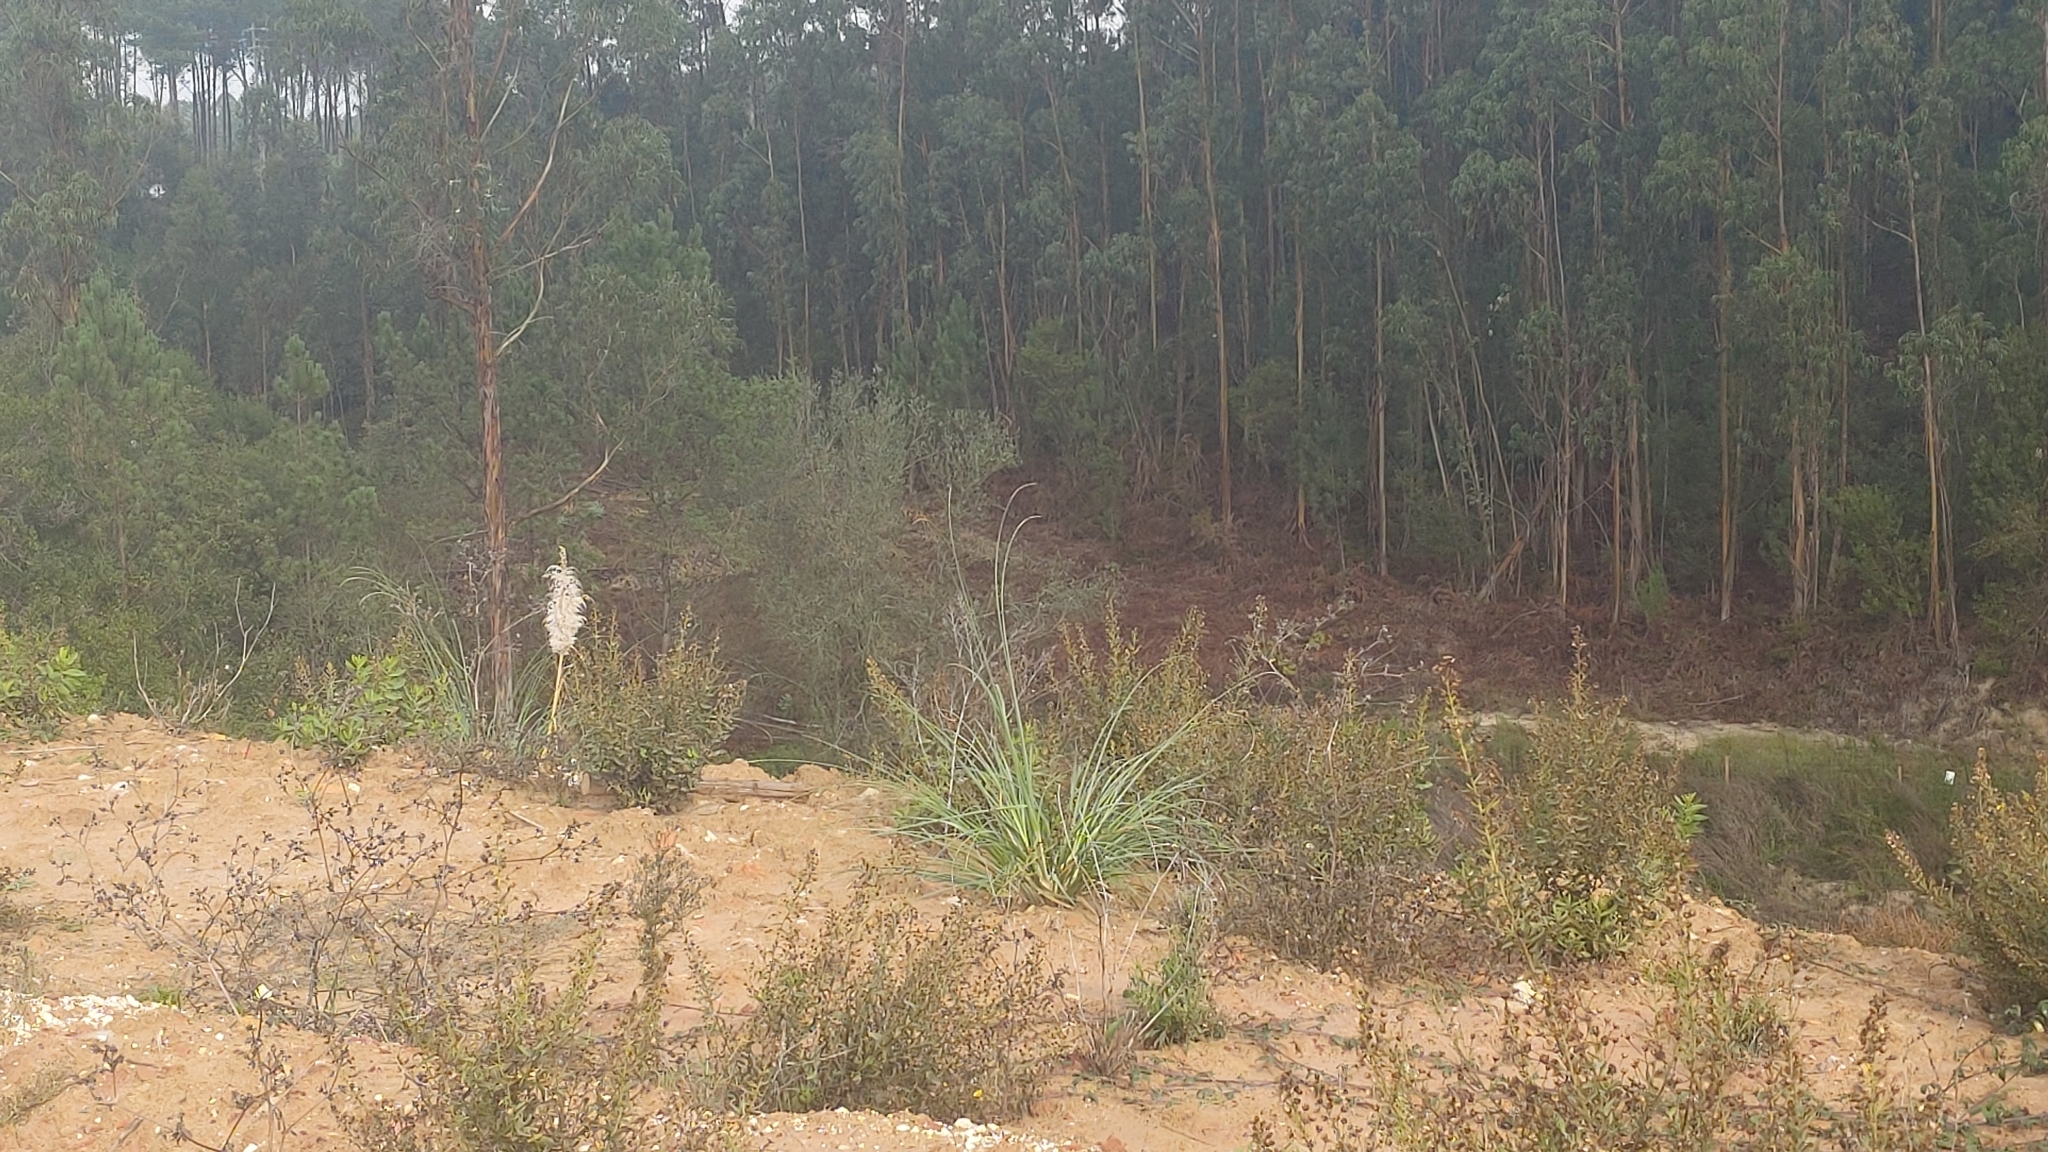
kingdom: Plantae
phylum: Tracheophyta
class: Liliopsida
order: Poales
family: Poaceae
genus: Cortaderia
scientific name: Cortaderia selloana
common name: Uruguayan pampas grass
